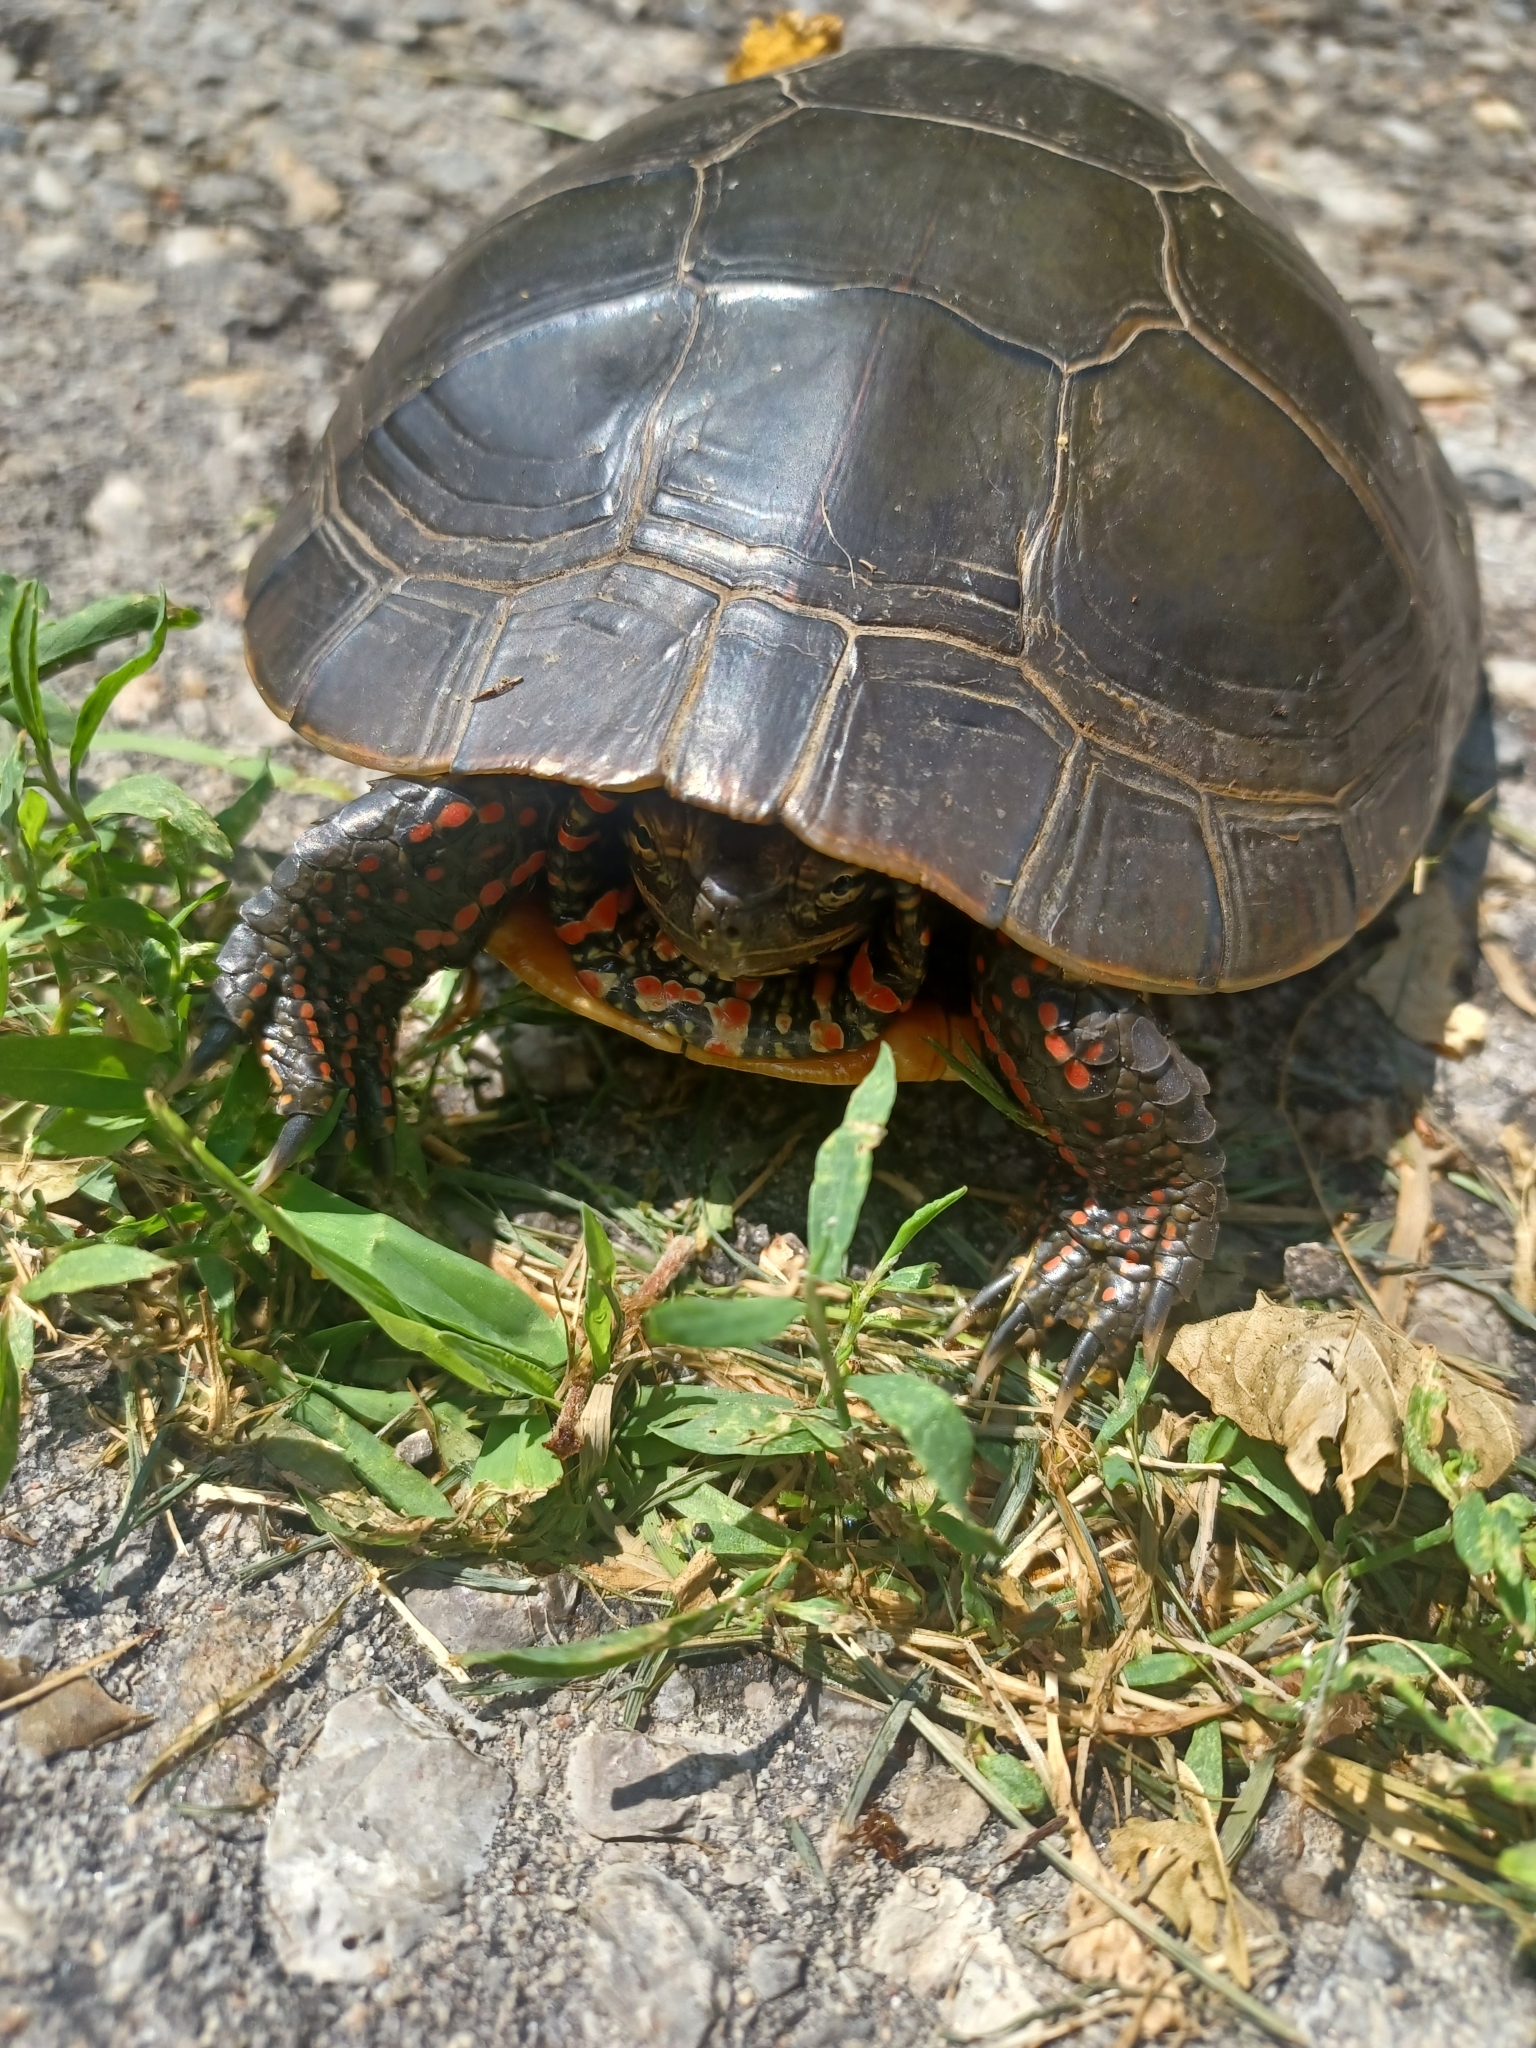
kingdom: Animalia
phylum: Chordata
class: Testudines
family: Emydidae
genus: Chrysemys
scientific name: Chrysemys picta
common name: Painted turtle
